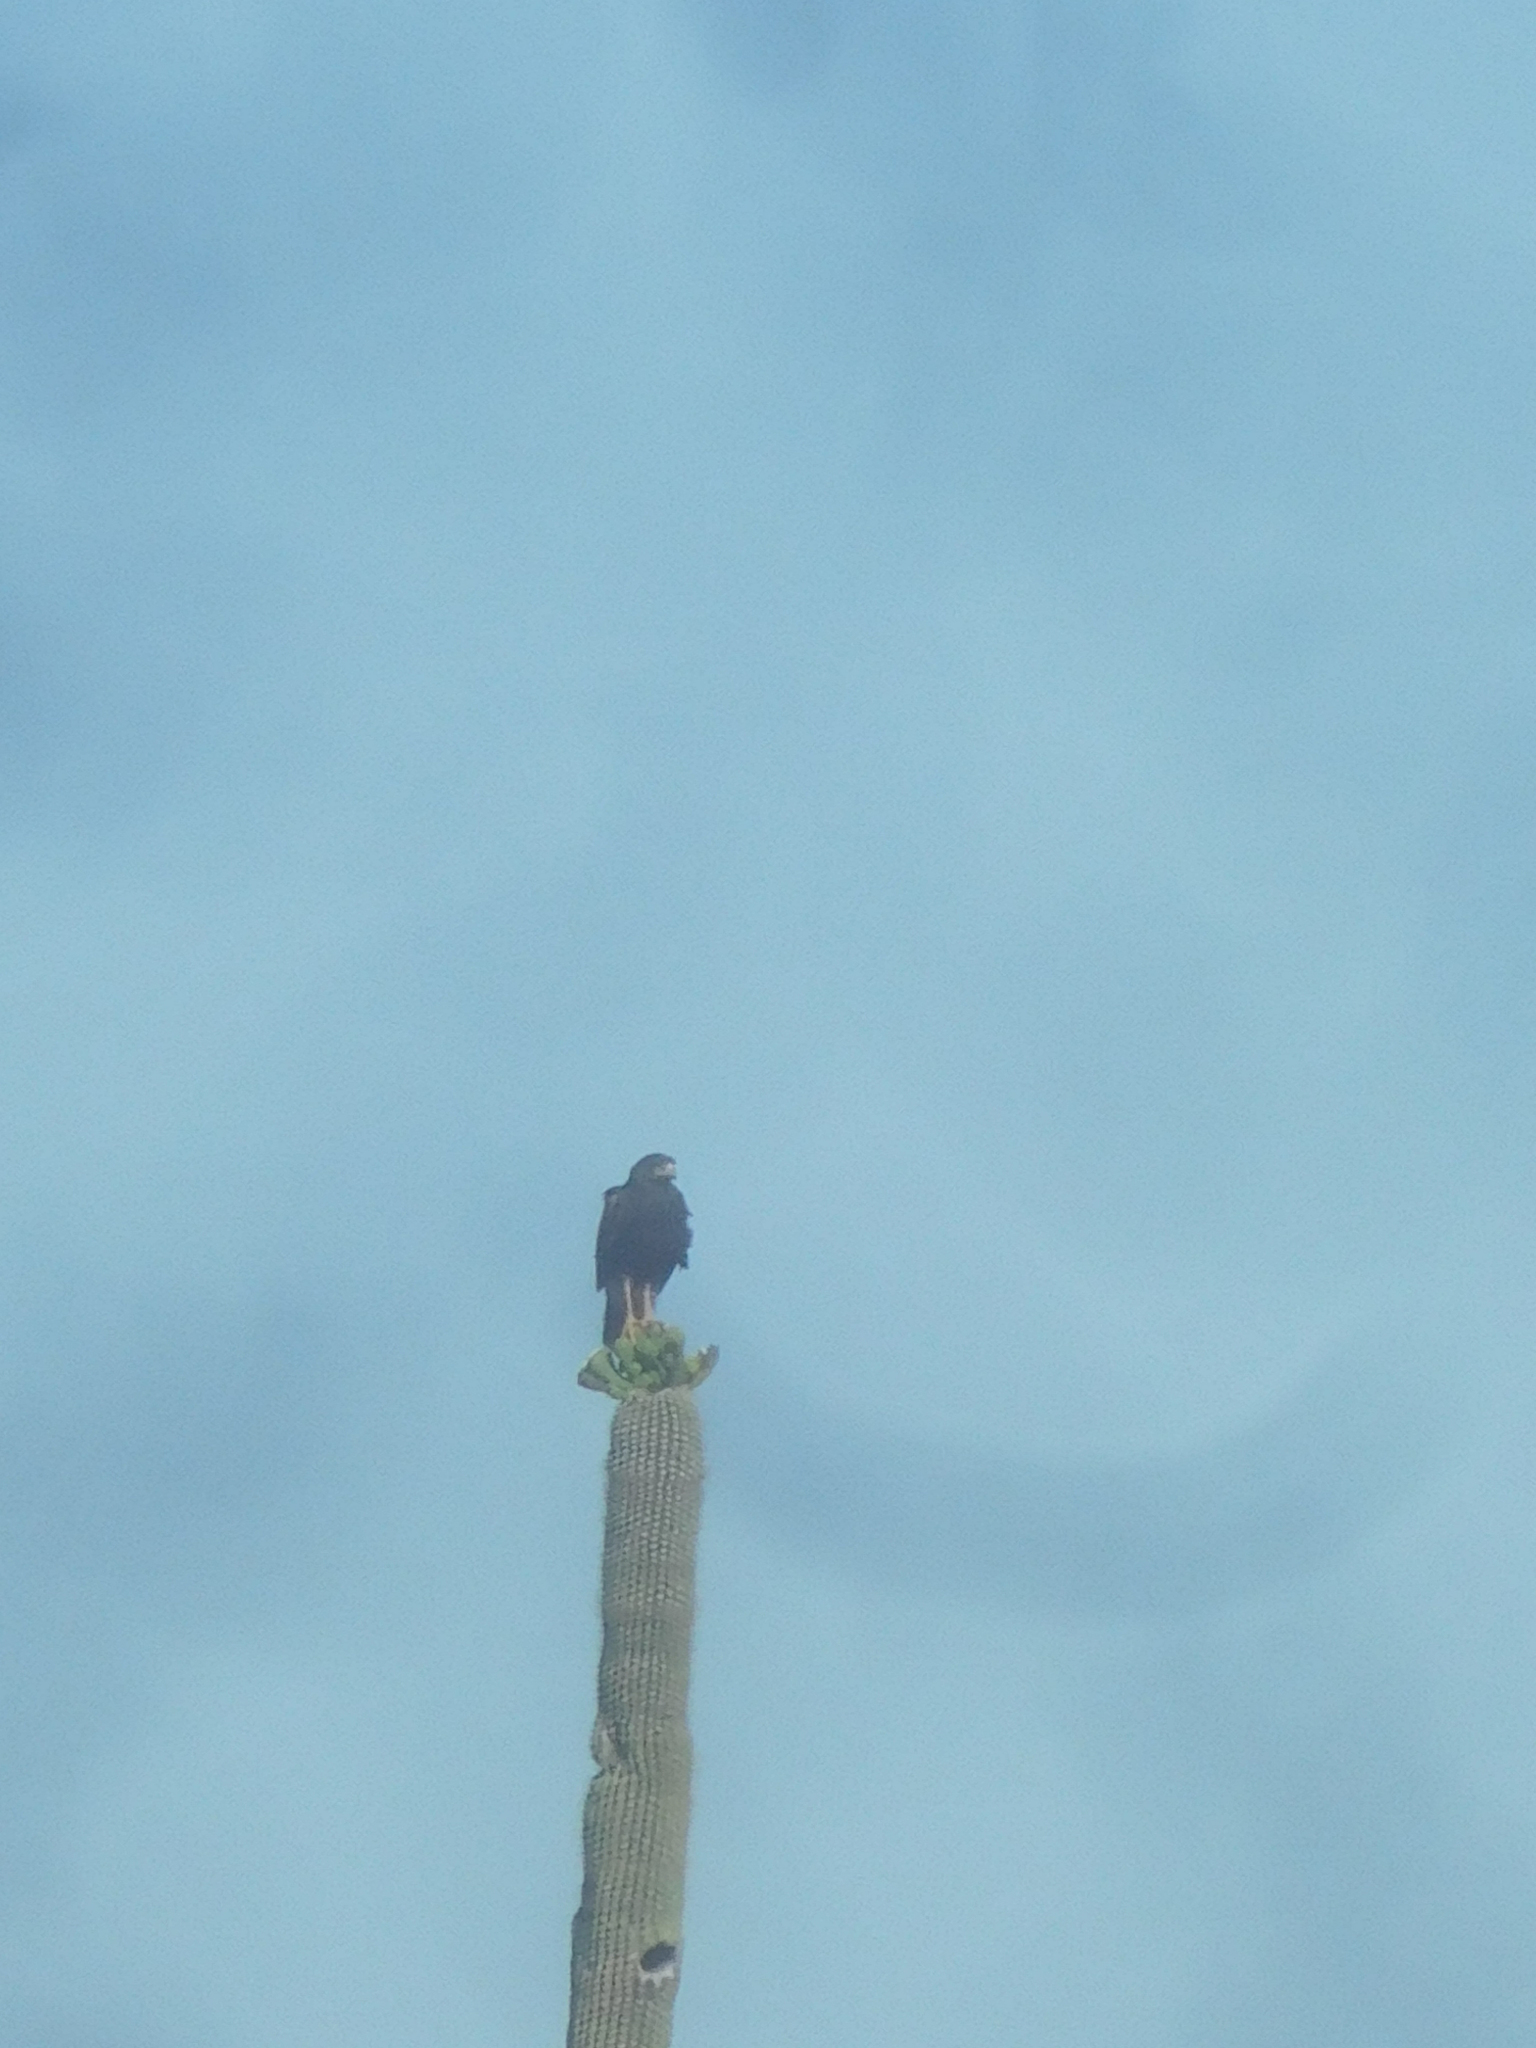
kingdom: Animalia
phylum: Chordata
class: Aves
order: Accipitriformes
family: Accipitridae
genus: Parabuteo
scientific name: Parabuteo unicinctus
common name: Harris's hawk
